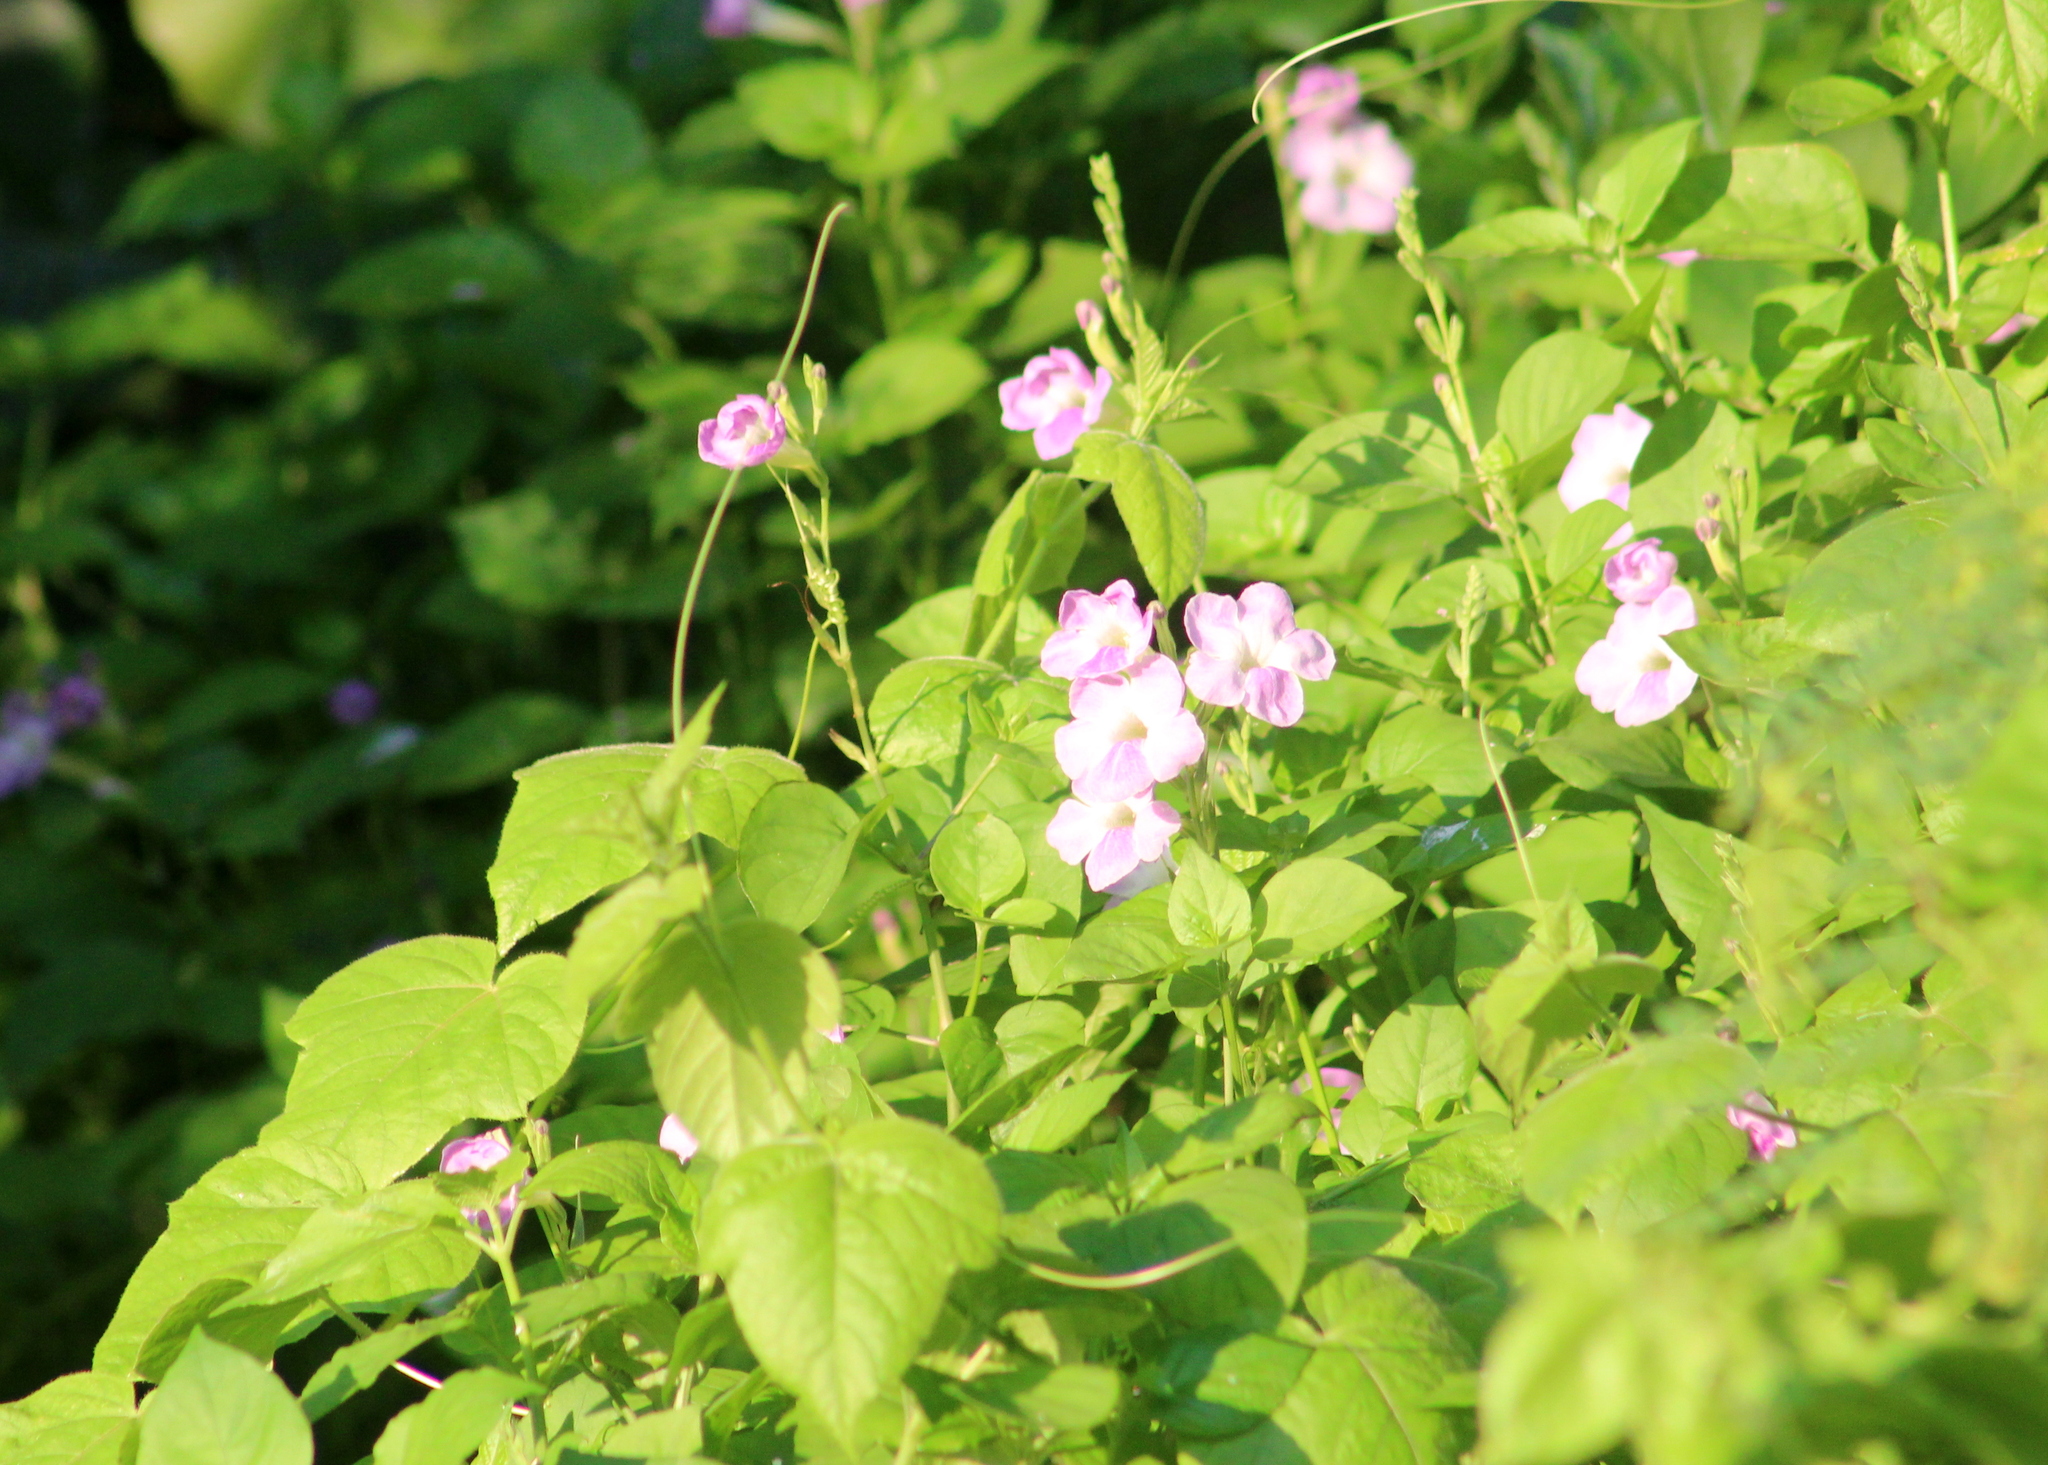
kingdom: Plantae
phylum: Tracheophyta
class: Magnoliopsida
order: Lamiales
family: Acanthaceae
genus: Asystasia
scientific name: Asystasia gangetica
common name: Chinese violet
